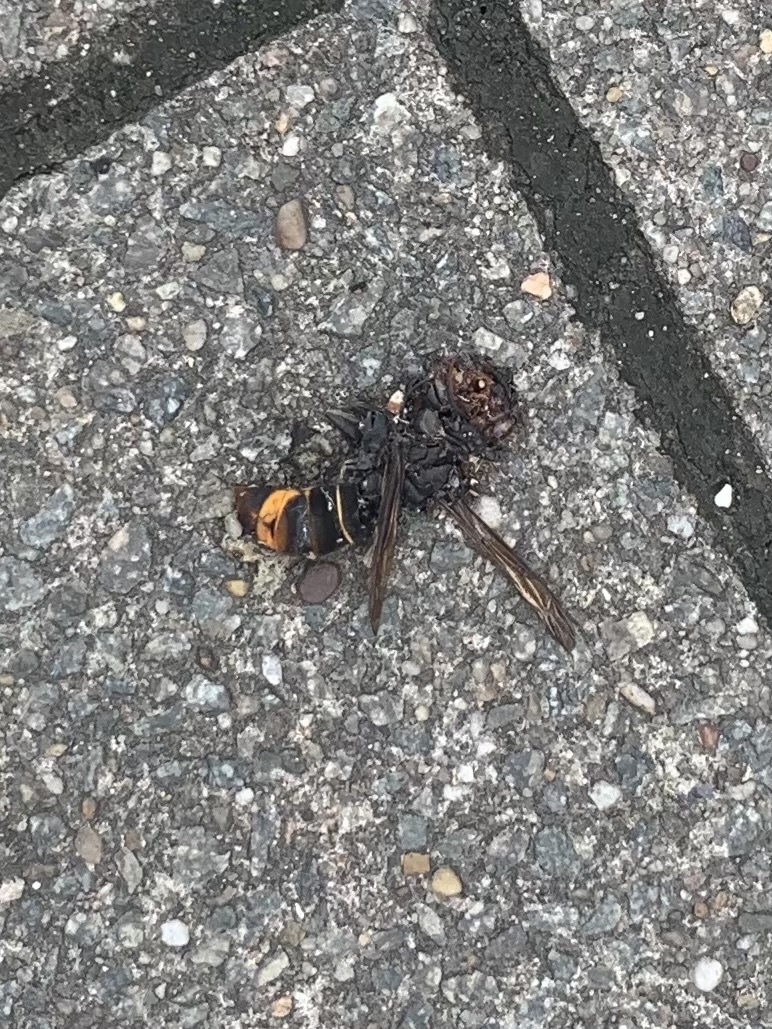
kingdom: Animalia
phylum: Arthropoda
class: Insecta
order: Hymenoptera
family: Vespidae
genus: Vespa
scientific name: Vespa velutina
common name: Asian hornet
